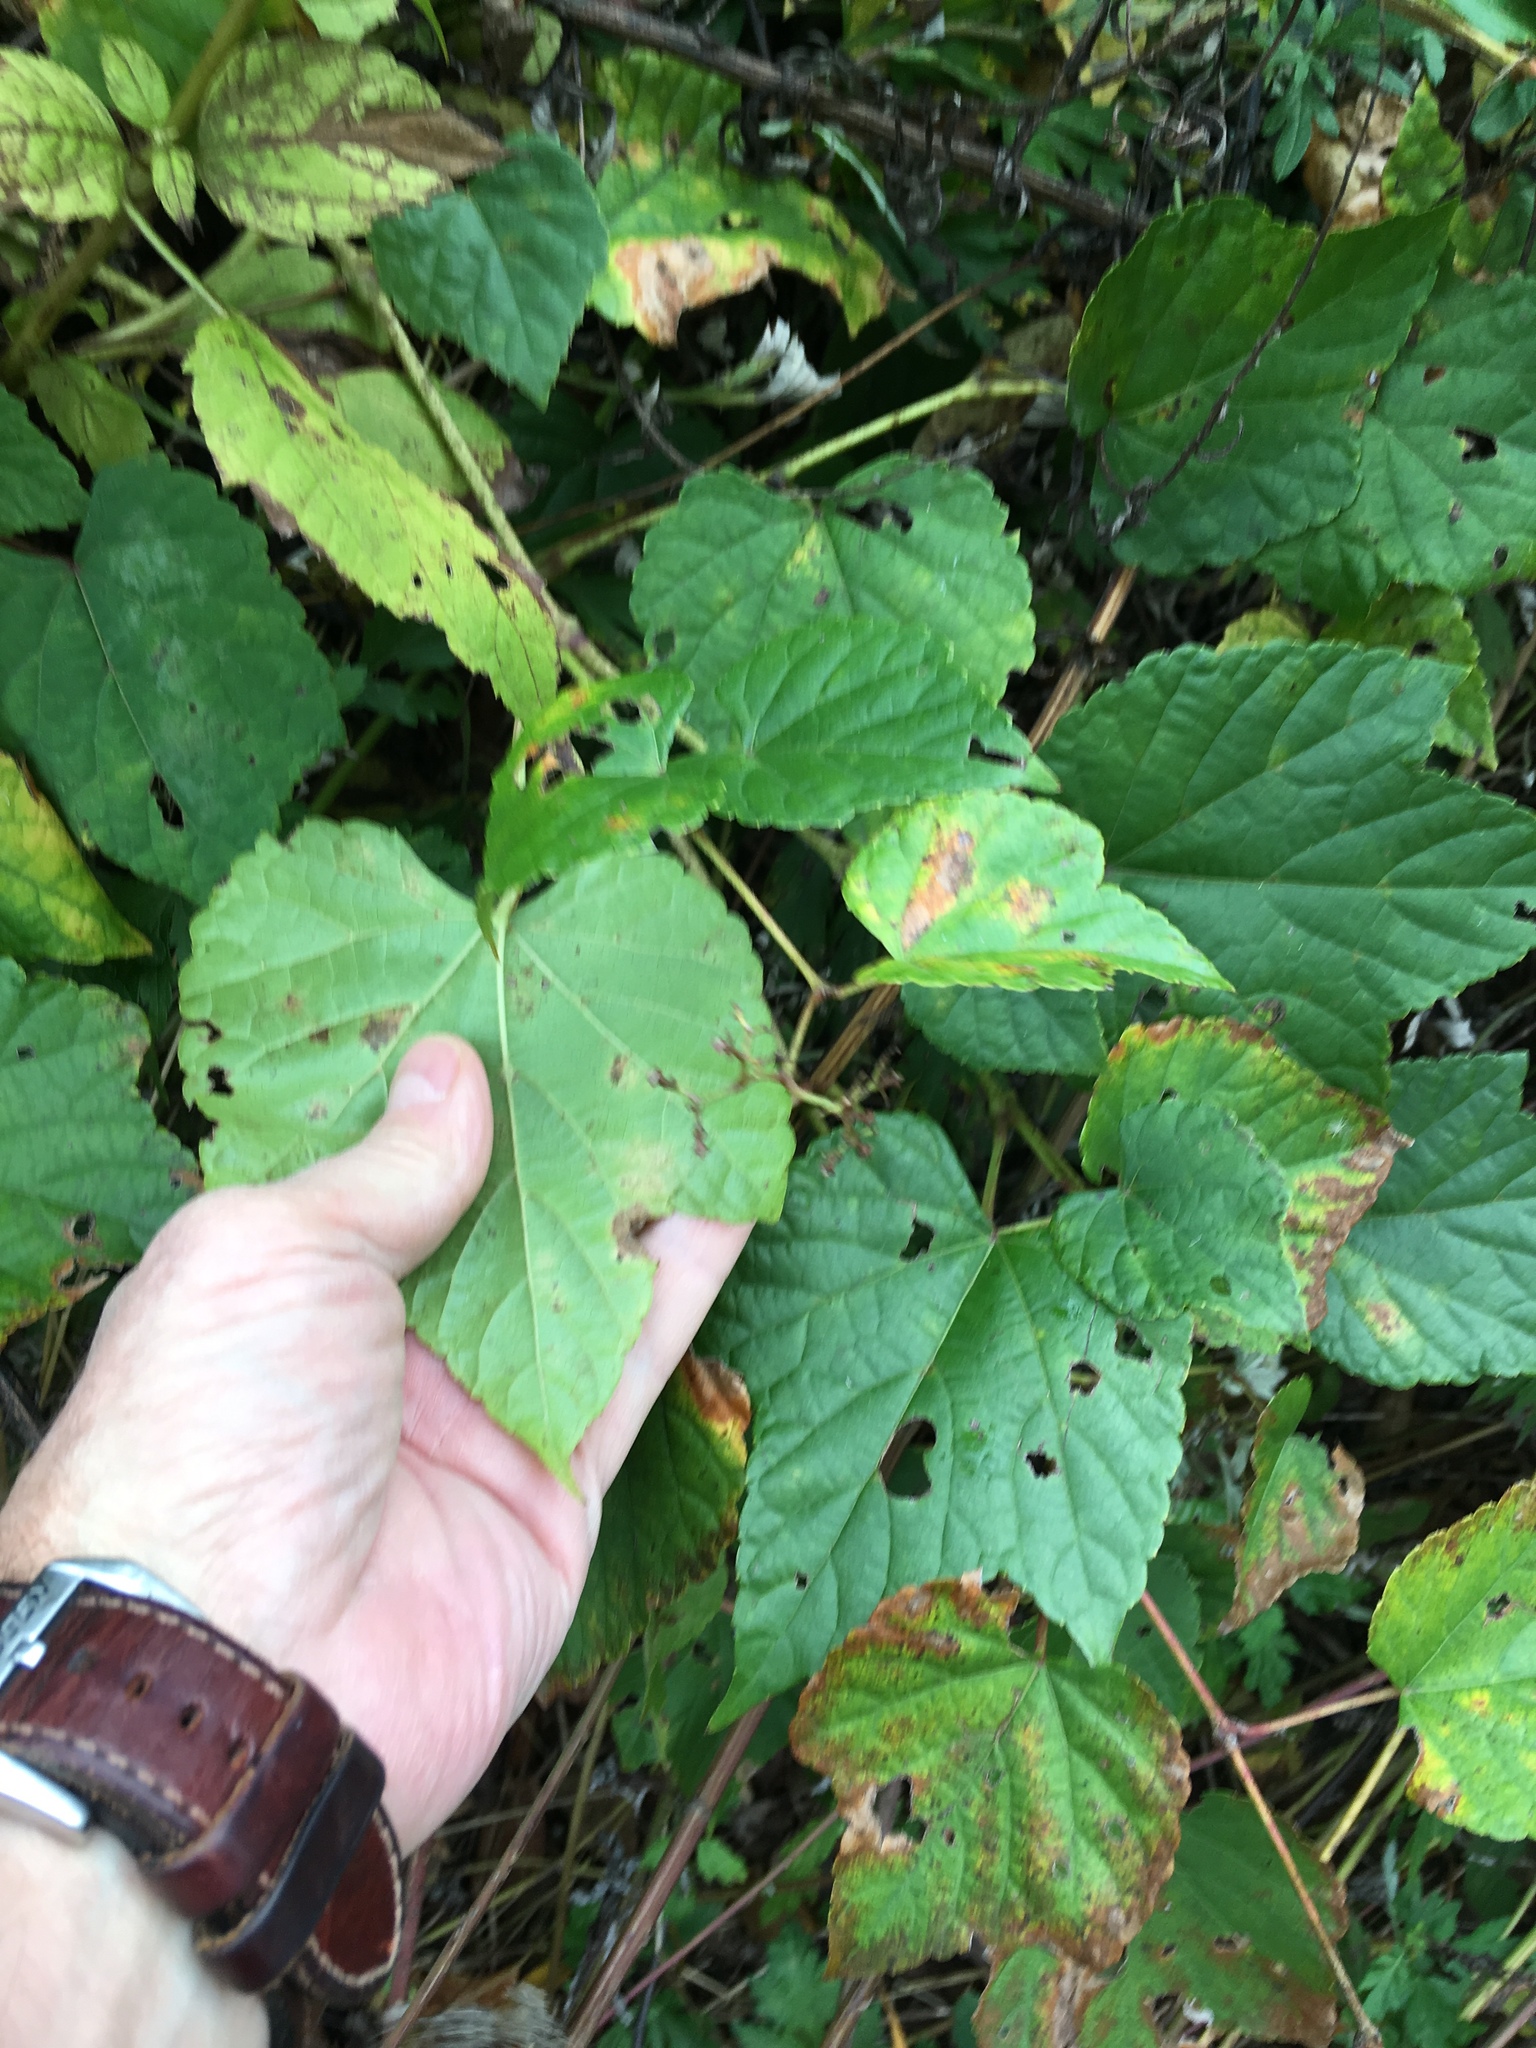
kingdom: Plantae
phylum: Tracheophyta
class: Magnoliopsida
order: Vitales
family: Vitaceae
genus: Ampelopsis
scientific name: Ampelopsis glandulosa
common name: Amur peppervine
